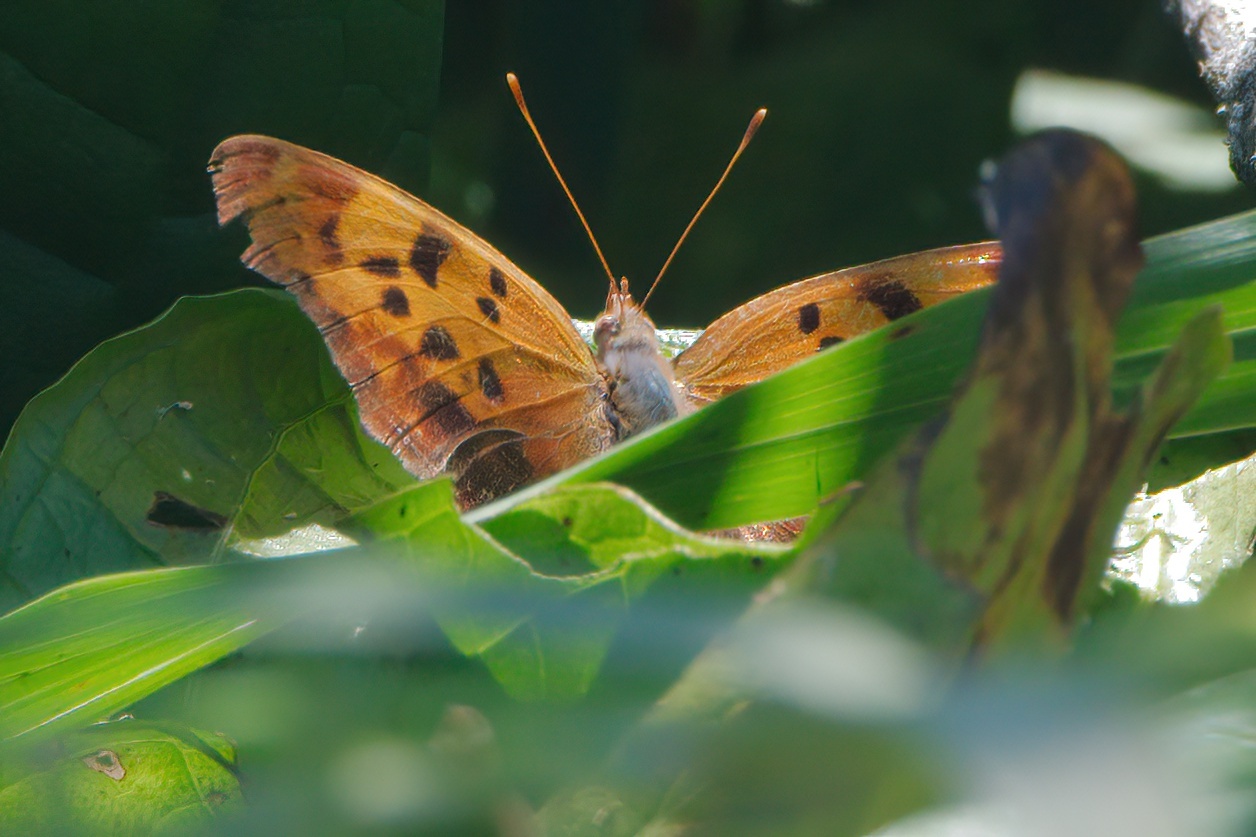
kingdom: Animalia
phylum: Arthropoda
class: Insecta
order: Lepidoptera
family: Nymphalidae
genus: Polygonia
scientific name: Polygonia interrogationis
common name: Question mark
